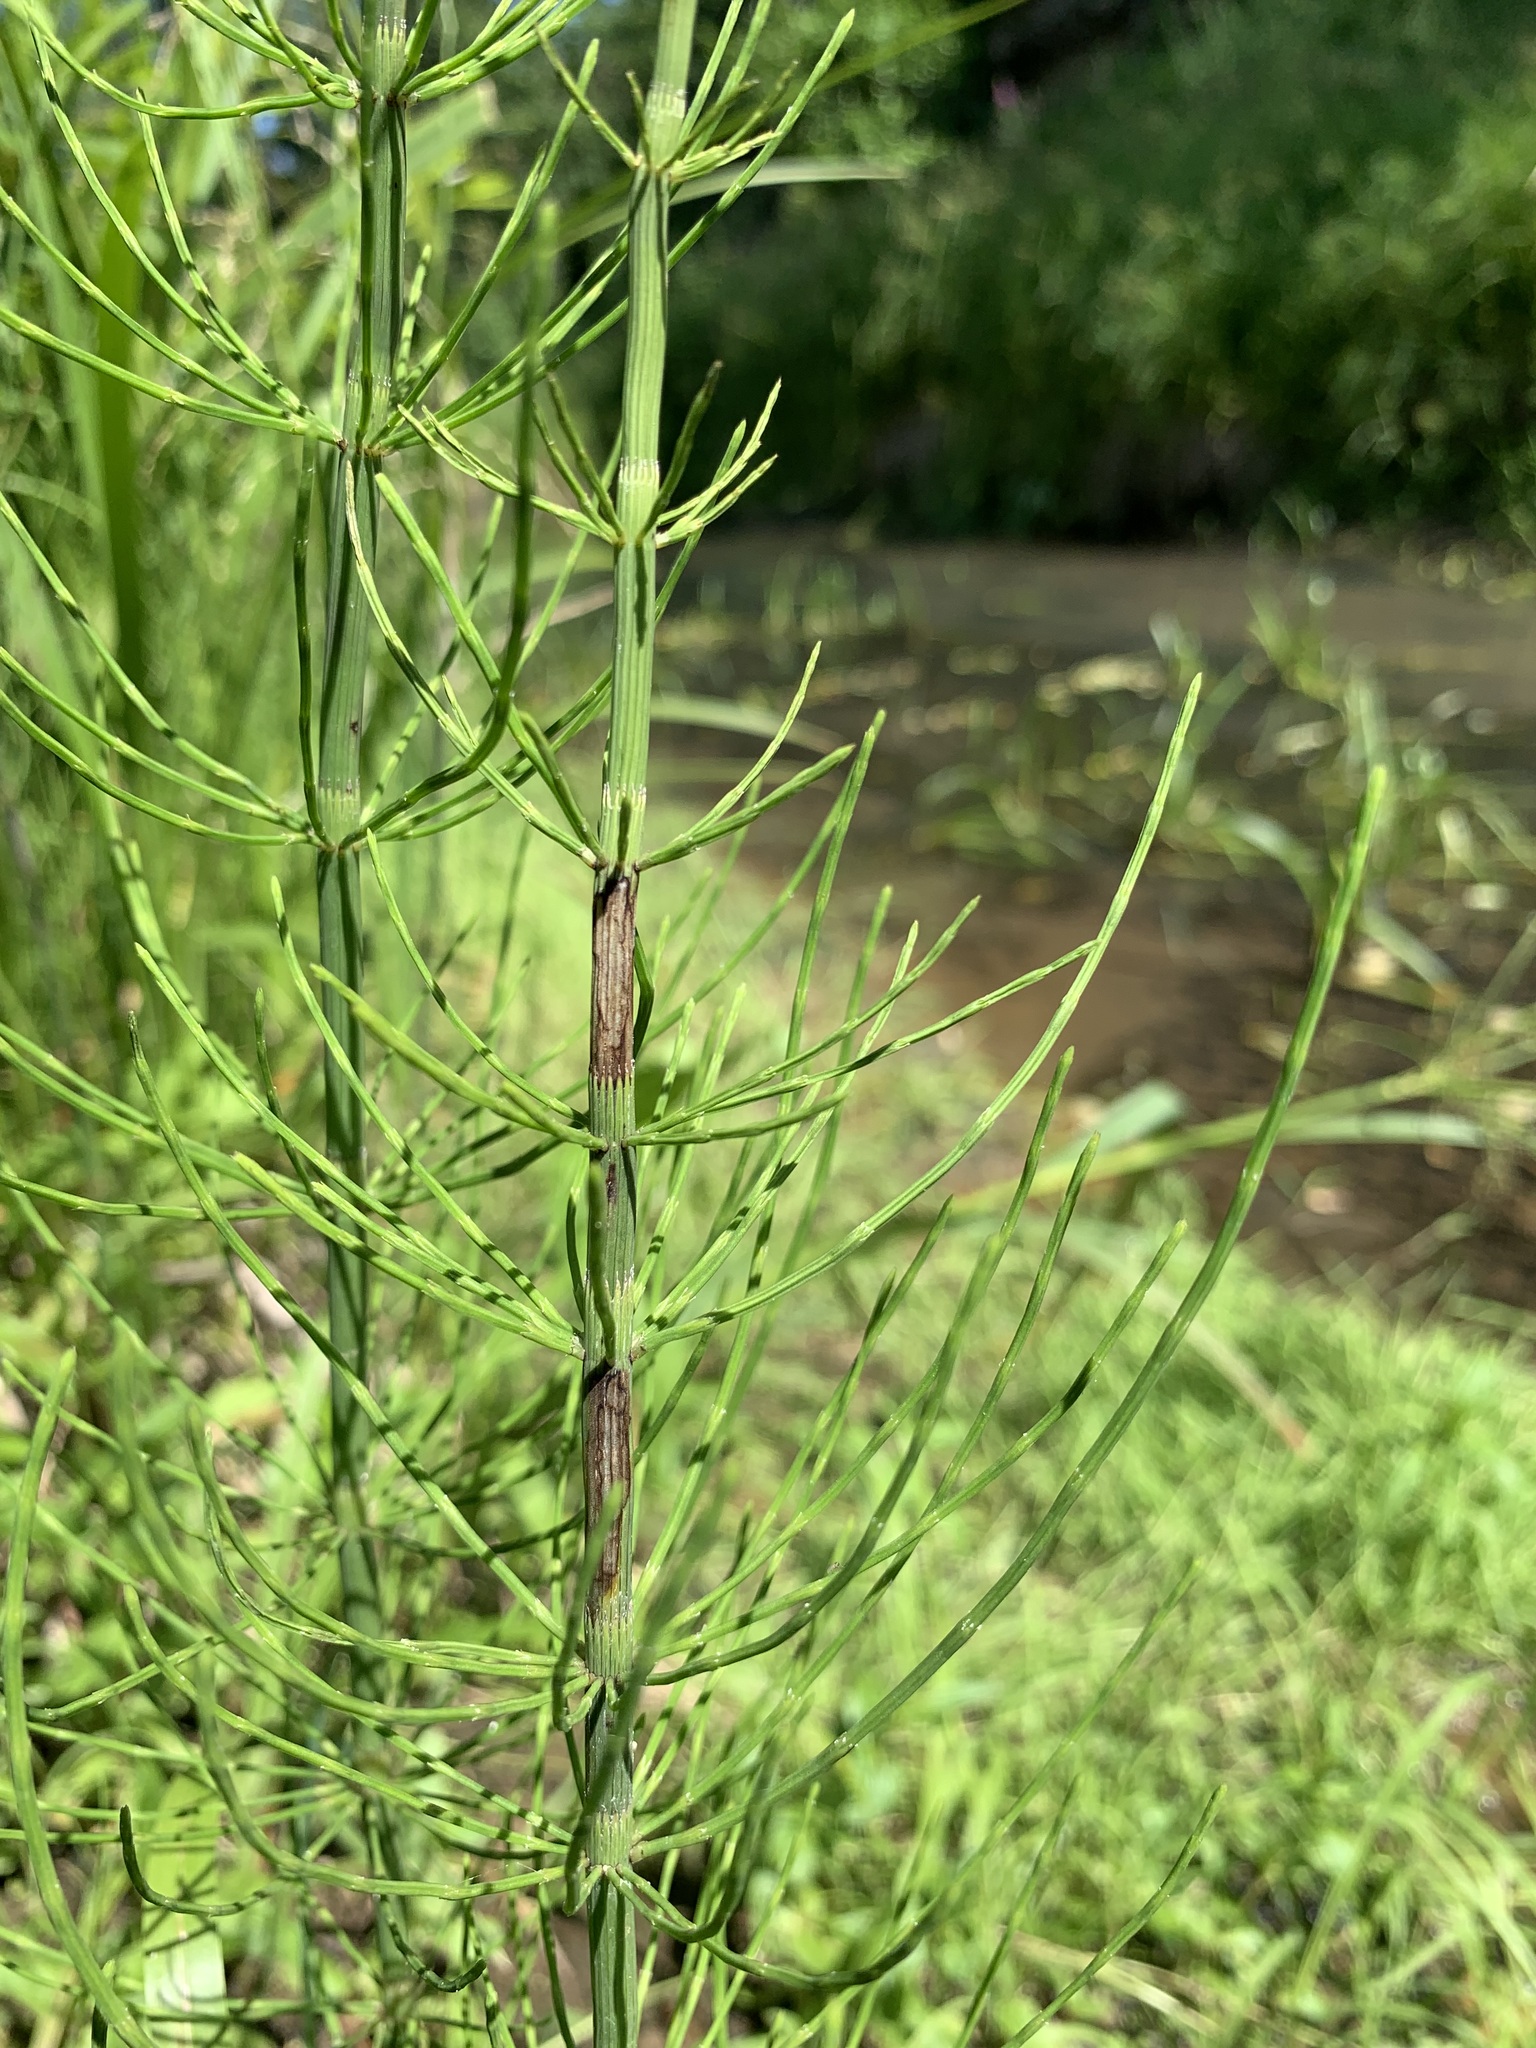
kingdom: Plantae
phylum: Tracheophyta
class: Polypodiopsida
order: Equisetales
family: Equisetaceae
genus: Equisetum
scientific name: Equisetum fluviatile
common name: Water horsetail
